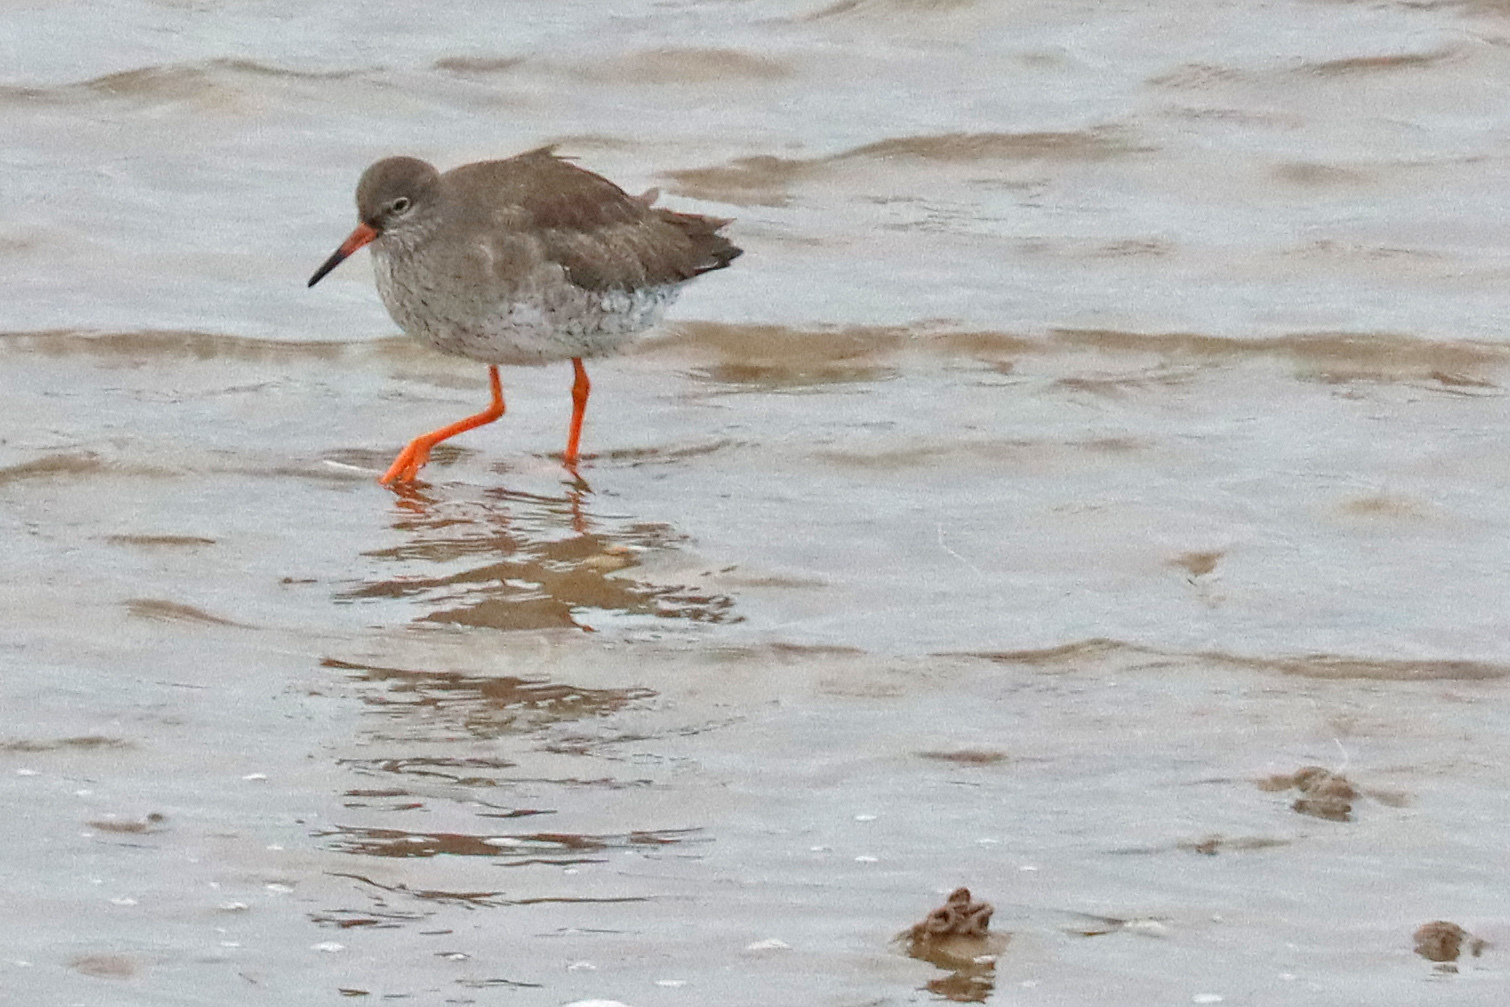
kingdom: Animalia
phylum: Chordata
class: Aves
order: Charadriiformes
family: Scolopacidae
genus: Tringa
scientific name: Tringa totanus
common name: Common redshank
